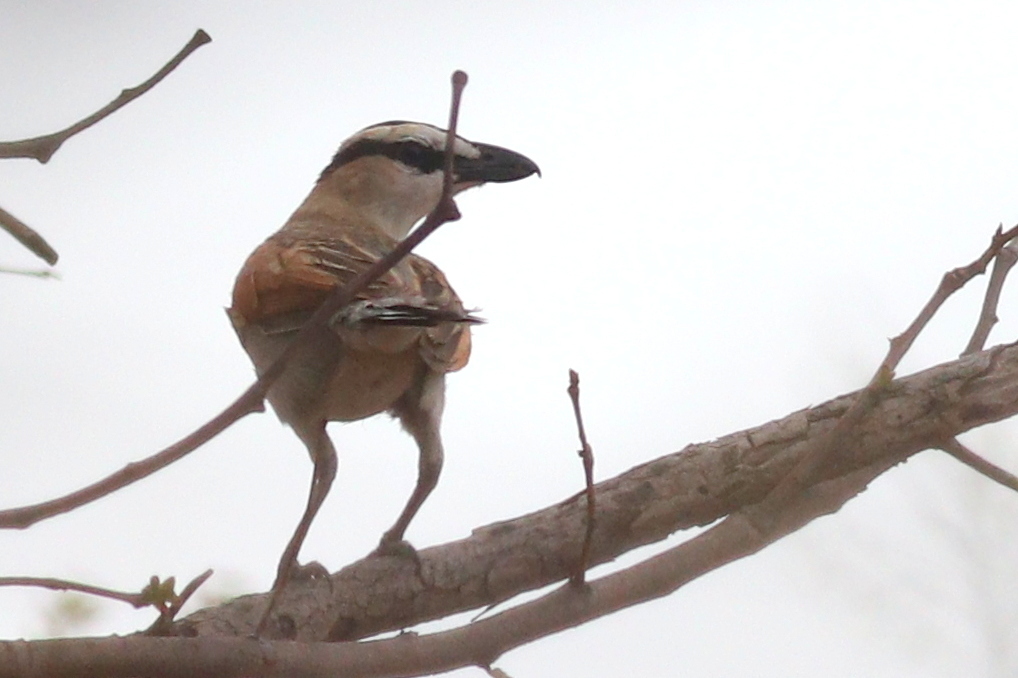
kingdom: Animalia
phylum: Chordata
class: Aves
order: Passeriformes
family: Malaconotidae
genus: Tchagra
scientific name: Tchagra senegalus
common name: Black-crowned tchagra
